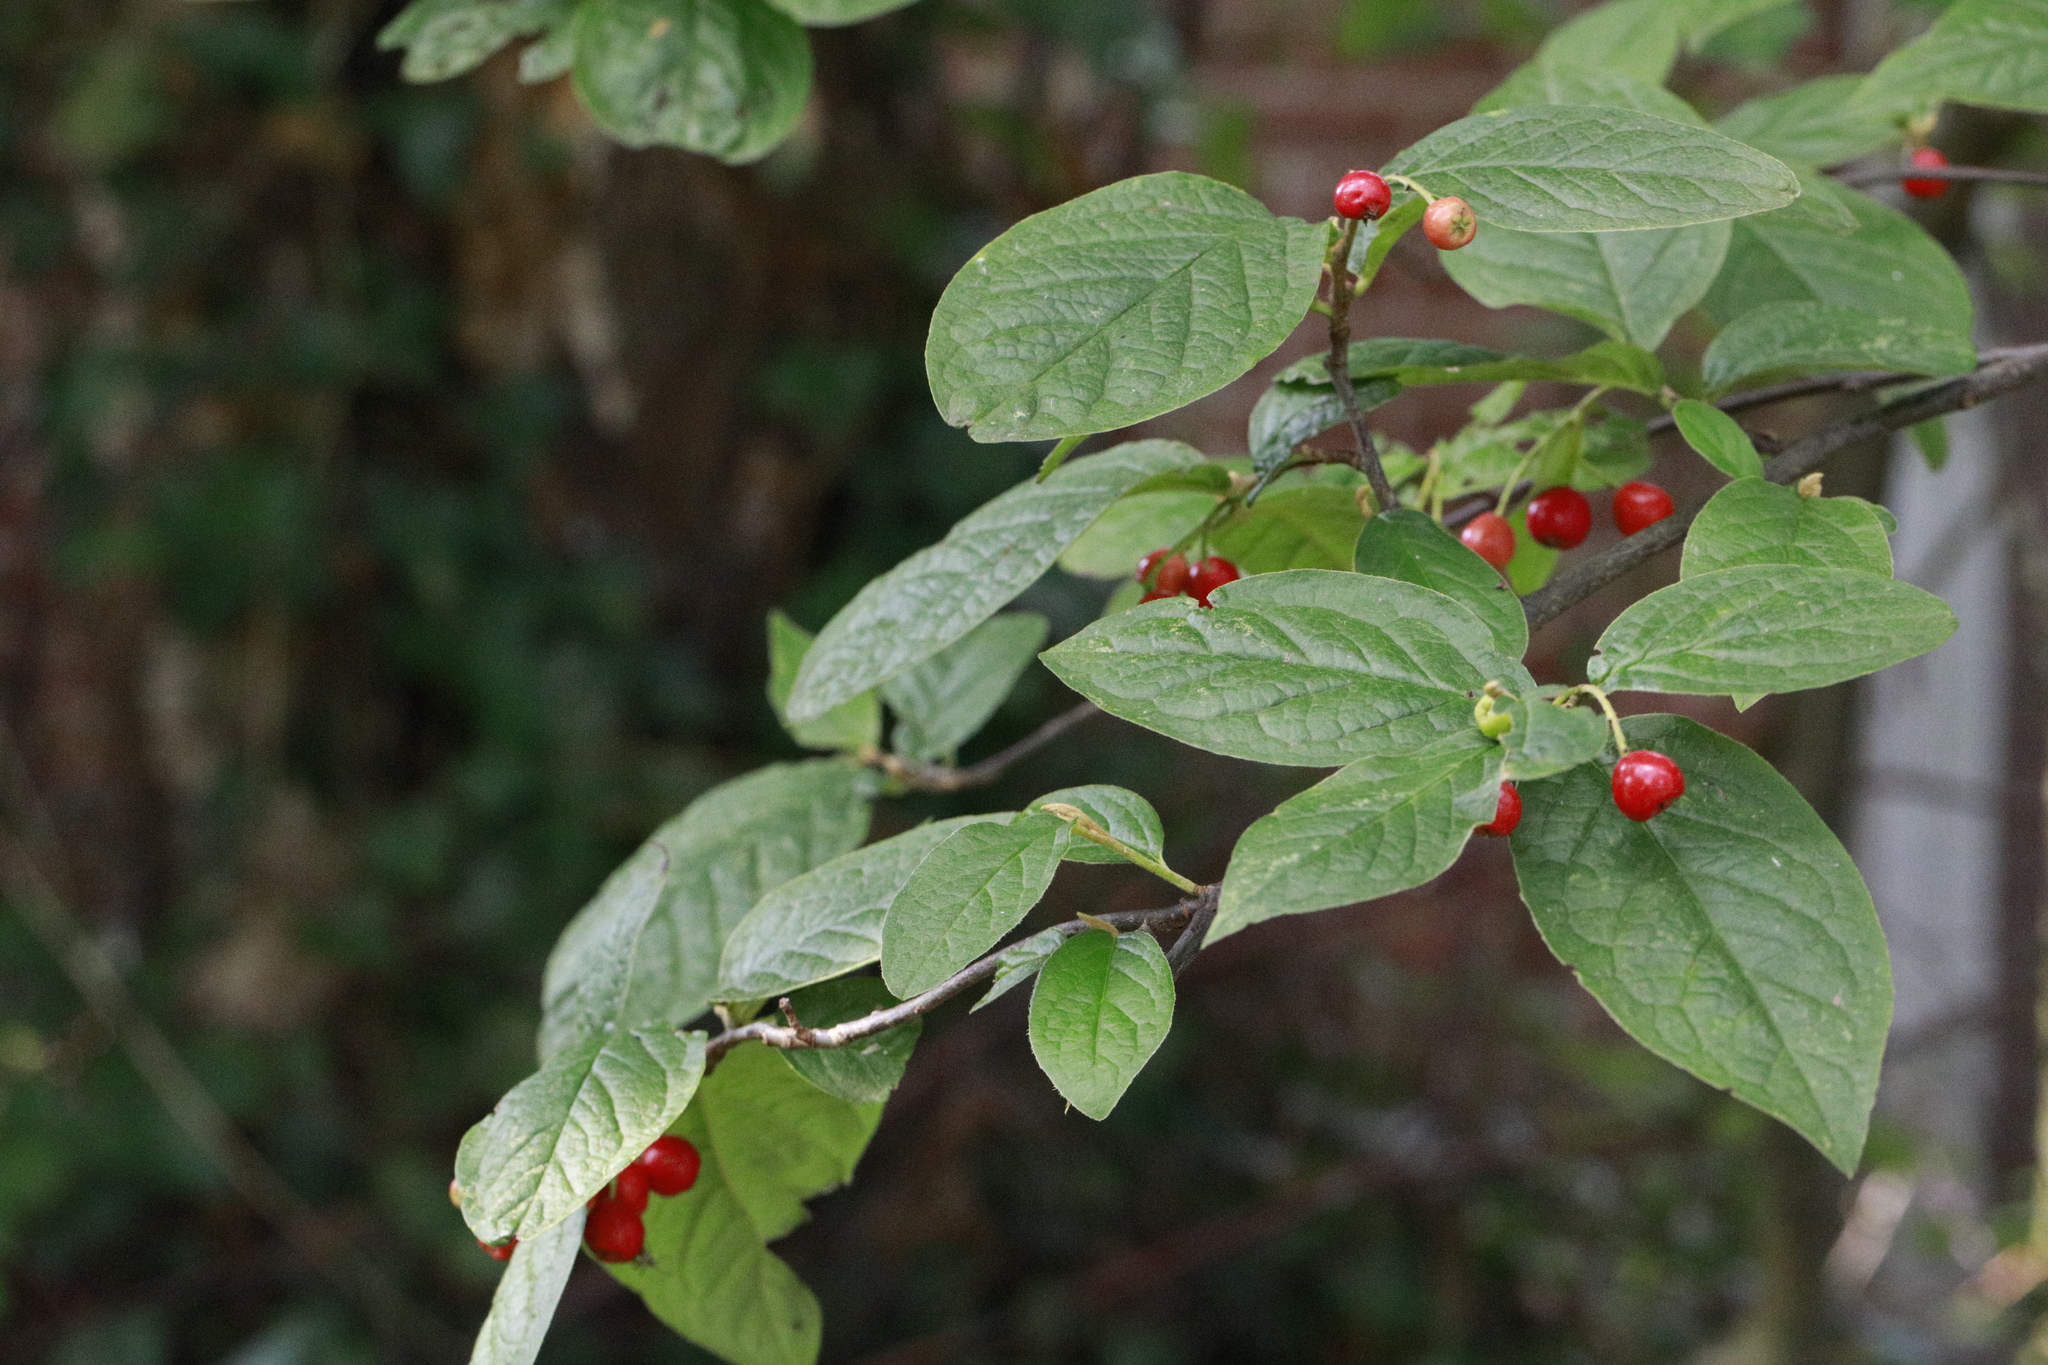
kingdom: Plantae
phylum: Tracheophyta
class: Magnoliopsida
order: Rosales
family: Rosaceae
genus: Cotoneaster
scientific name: Cotoneaster bullatus
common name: Hollyberry cotoneaster
